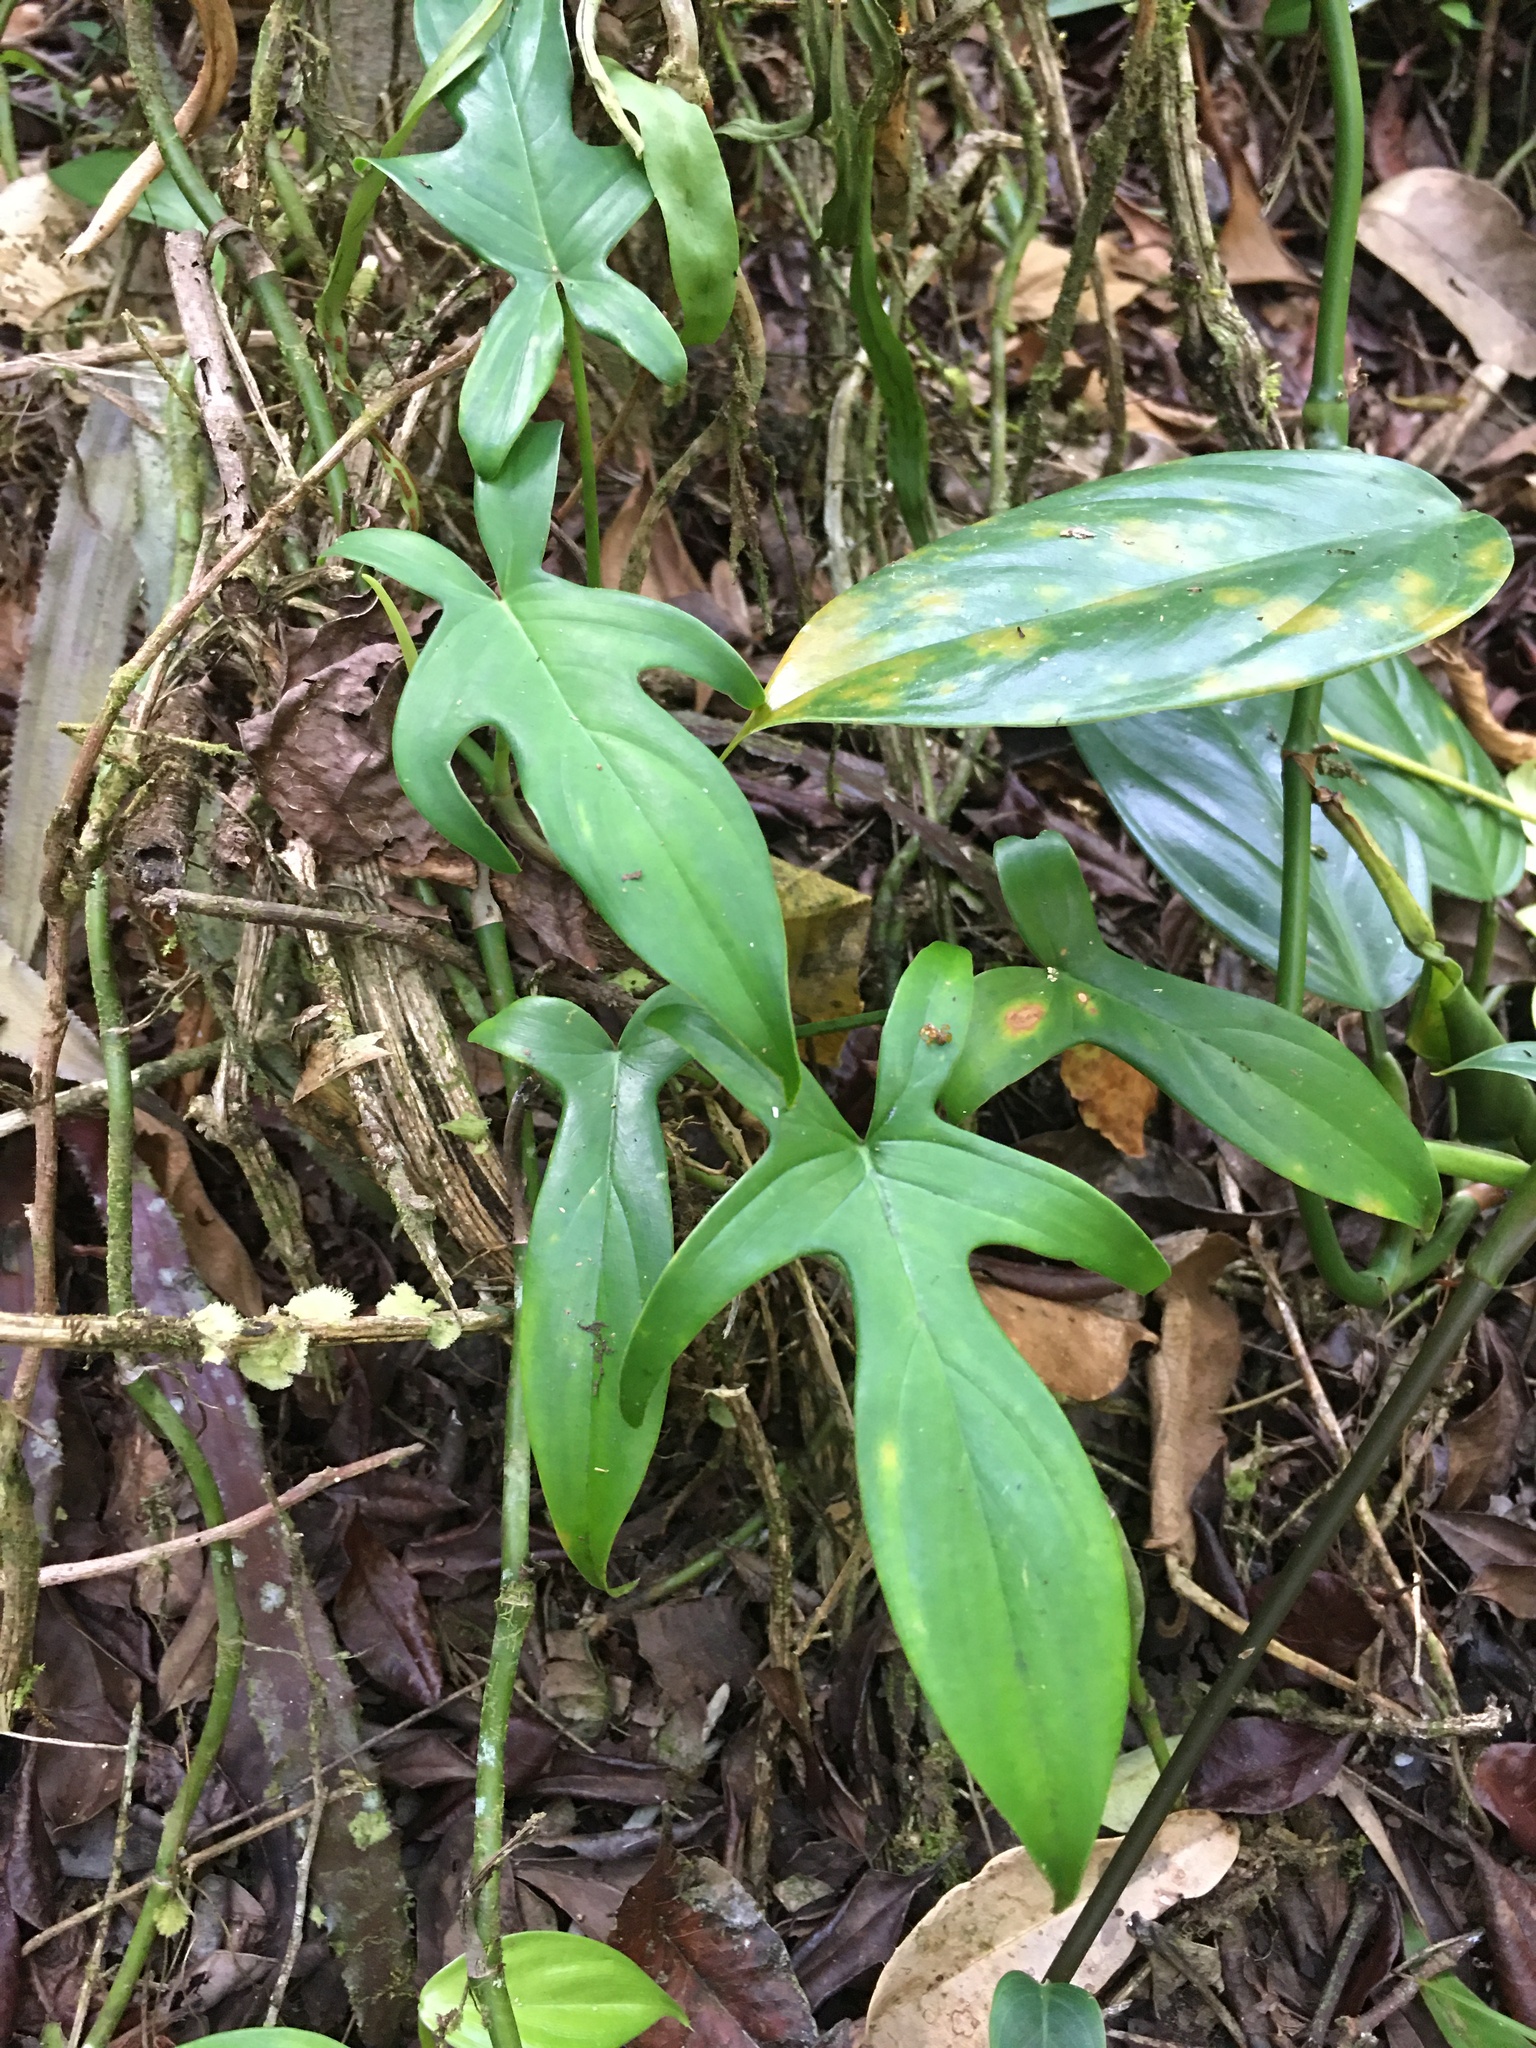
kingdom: Plantae
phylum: Tracheophyta
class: Liliopsida
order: Alismatales
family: Araceae
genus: Philodendron
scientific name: Philodendron pedatum
